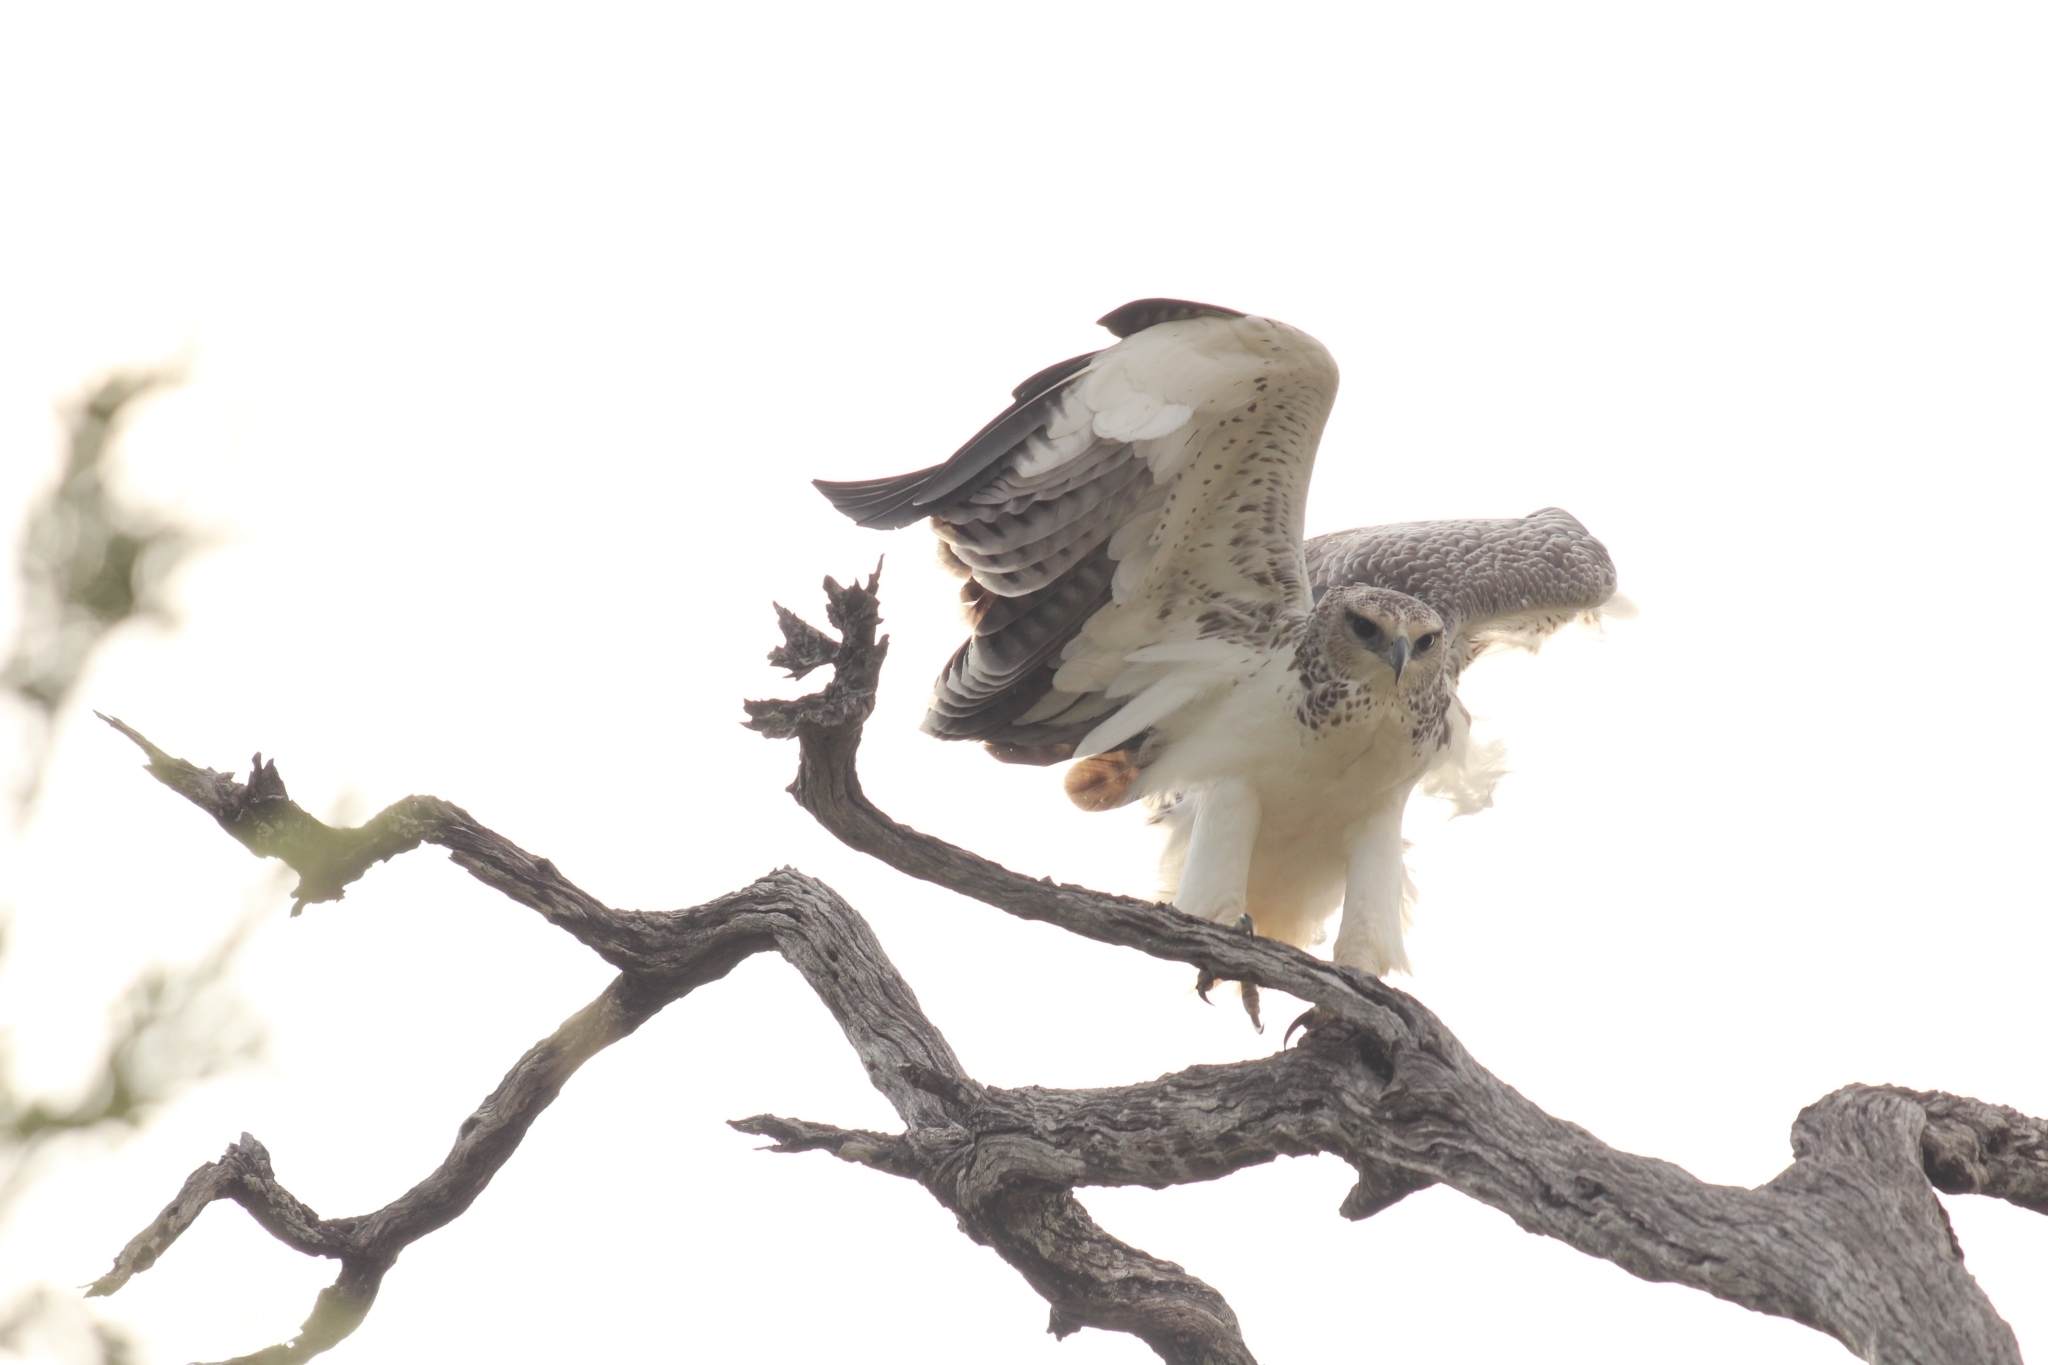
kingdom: Animalia
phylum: Chordata
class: Aves
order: Accipitriformes
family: Accipitridae
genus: Polemaetus
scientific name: Polemaetus bellicosus
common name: Martial eagle
